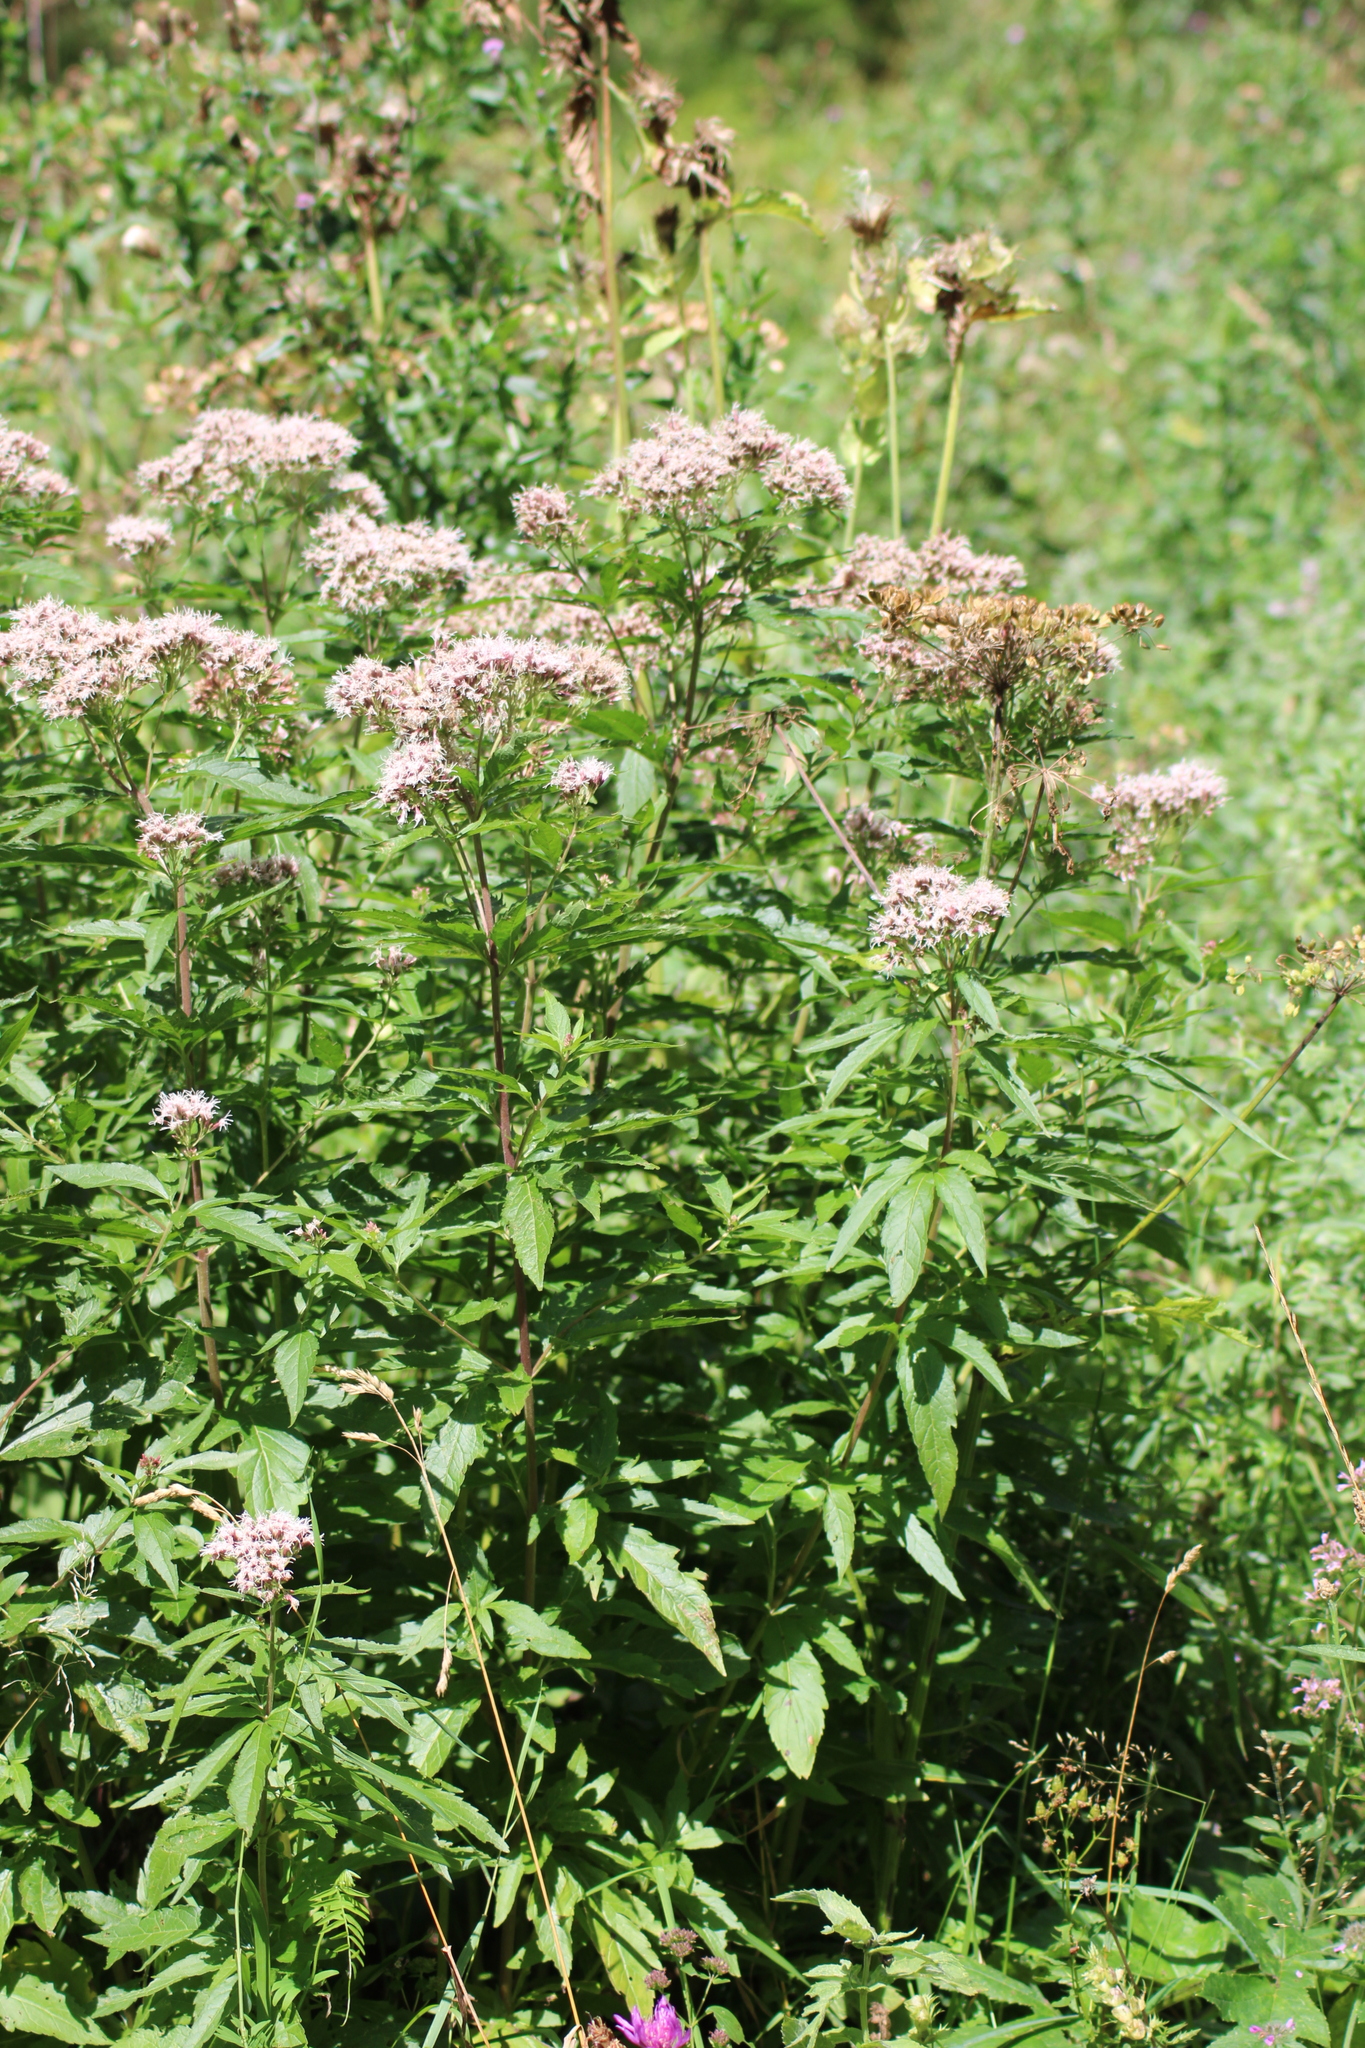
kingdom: Plantae
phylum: Tracheophyta
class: Magnoliopsida
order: Asterales
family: Asteraceae
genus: Eupatorium
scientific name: Eupatorium cannabinum
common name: Hemp-agrimony
